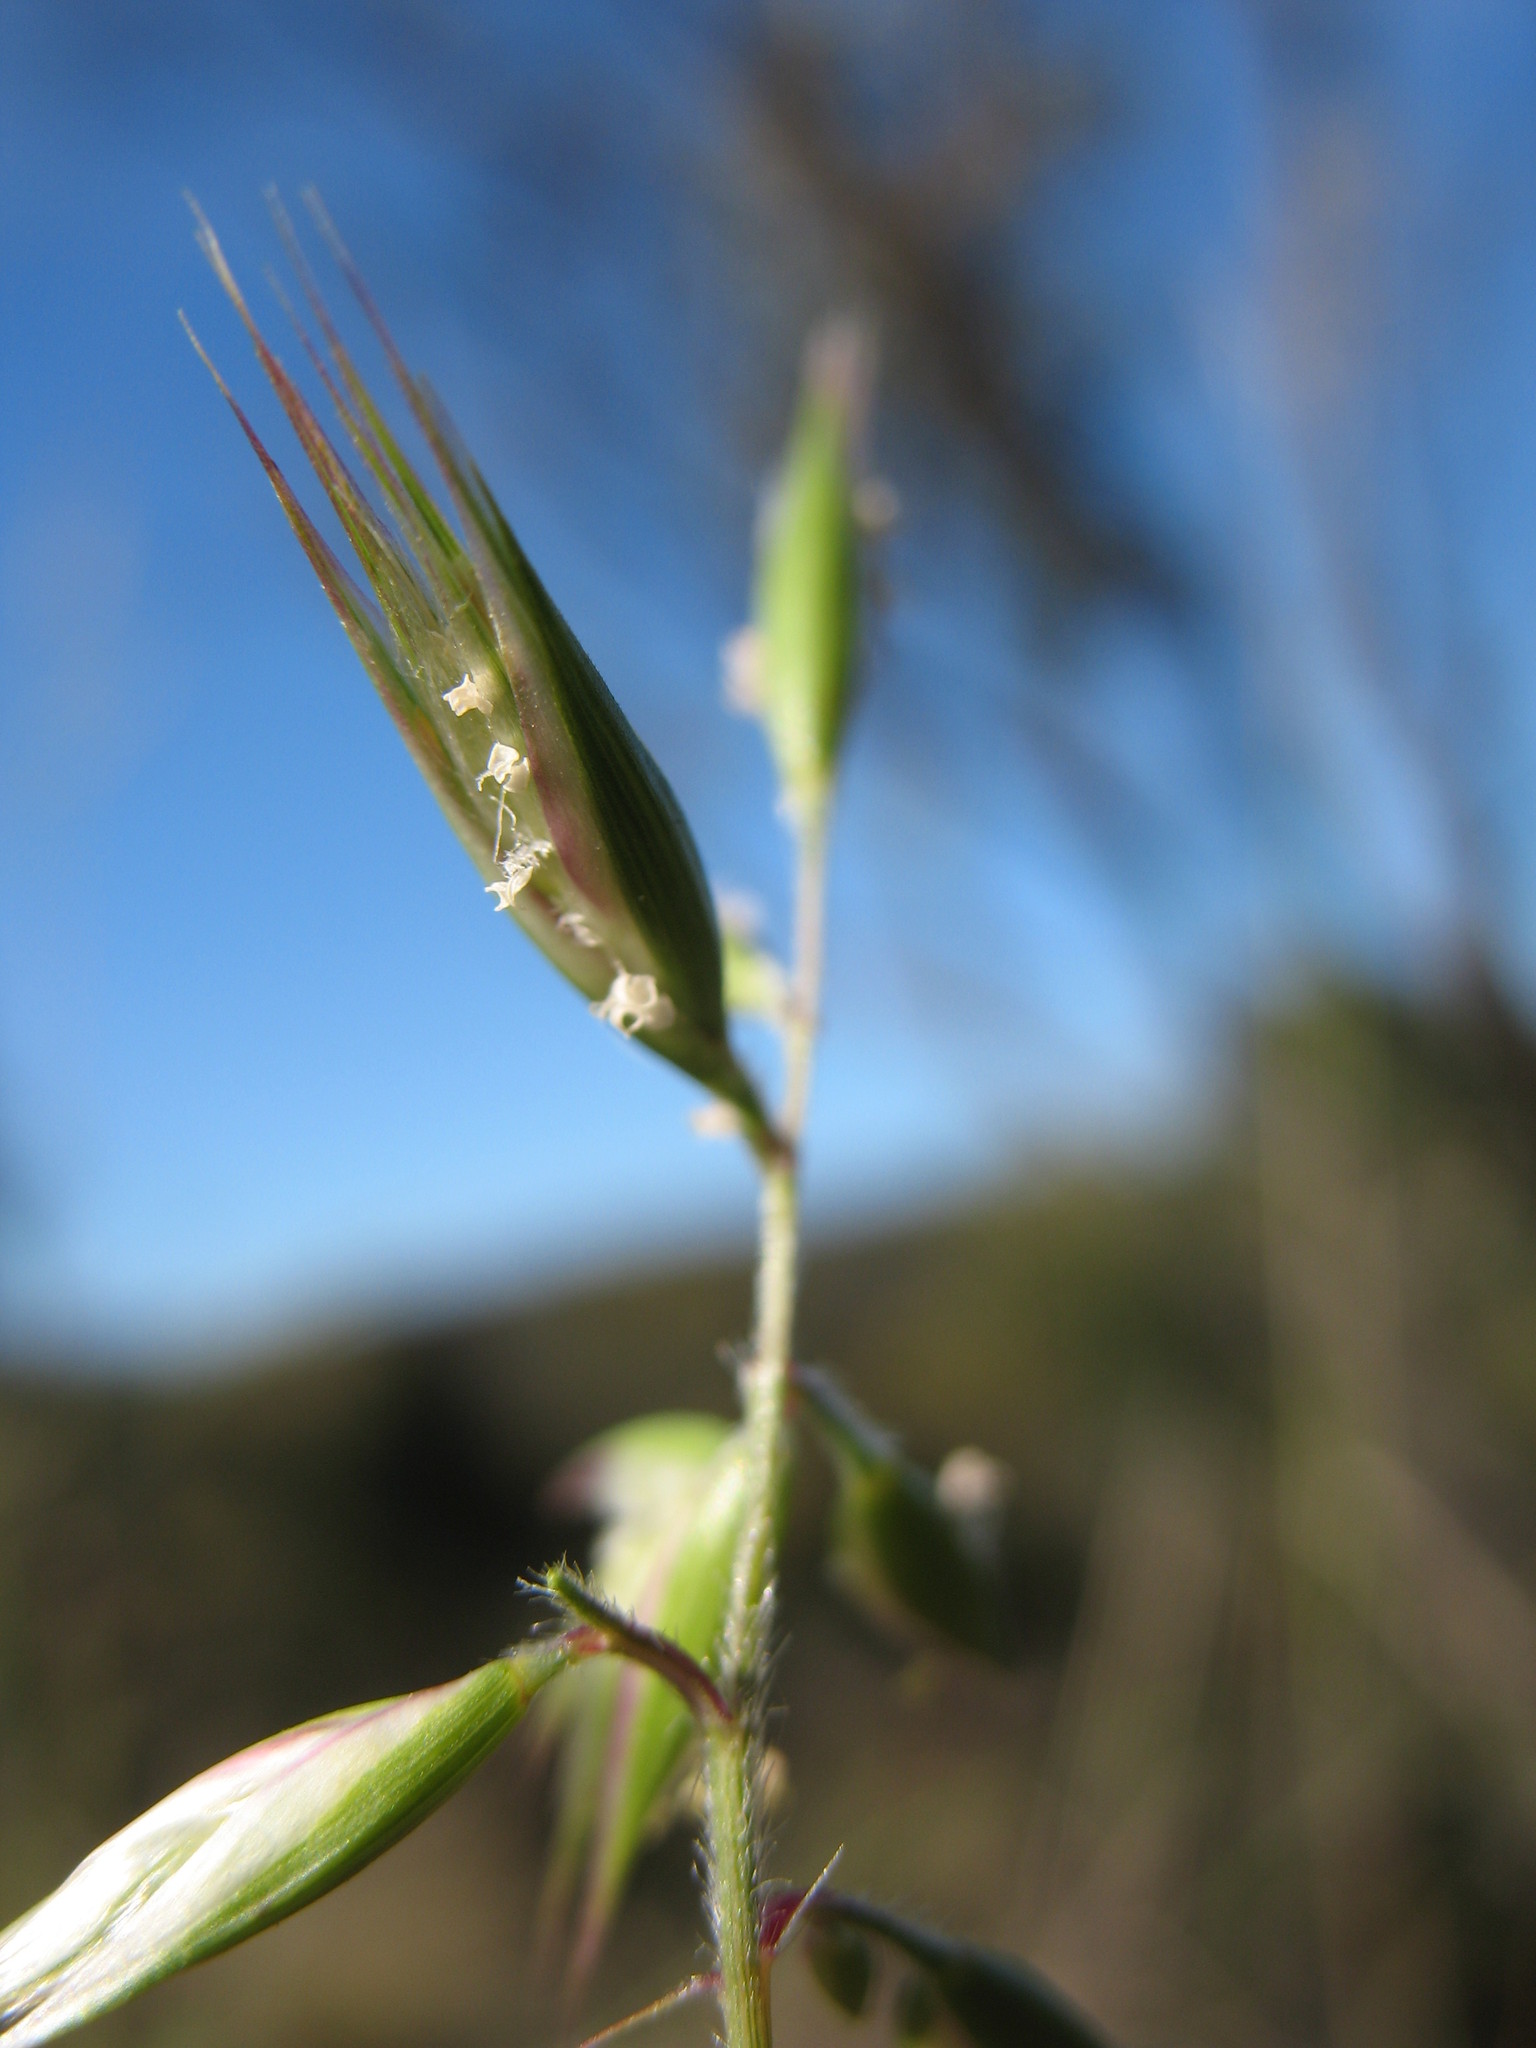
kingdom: Plantae
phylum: Tracheophyta
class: Liliopsida
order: Poales
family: Poaceae
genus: Rytidosperma
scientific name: Rytidosperma monticola
